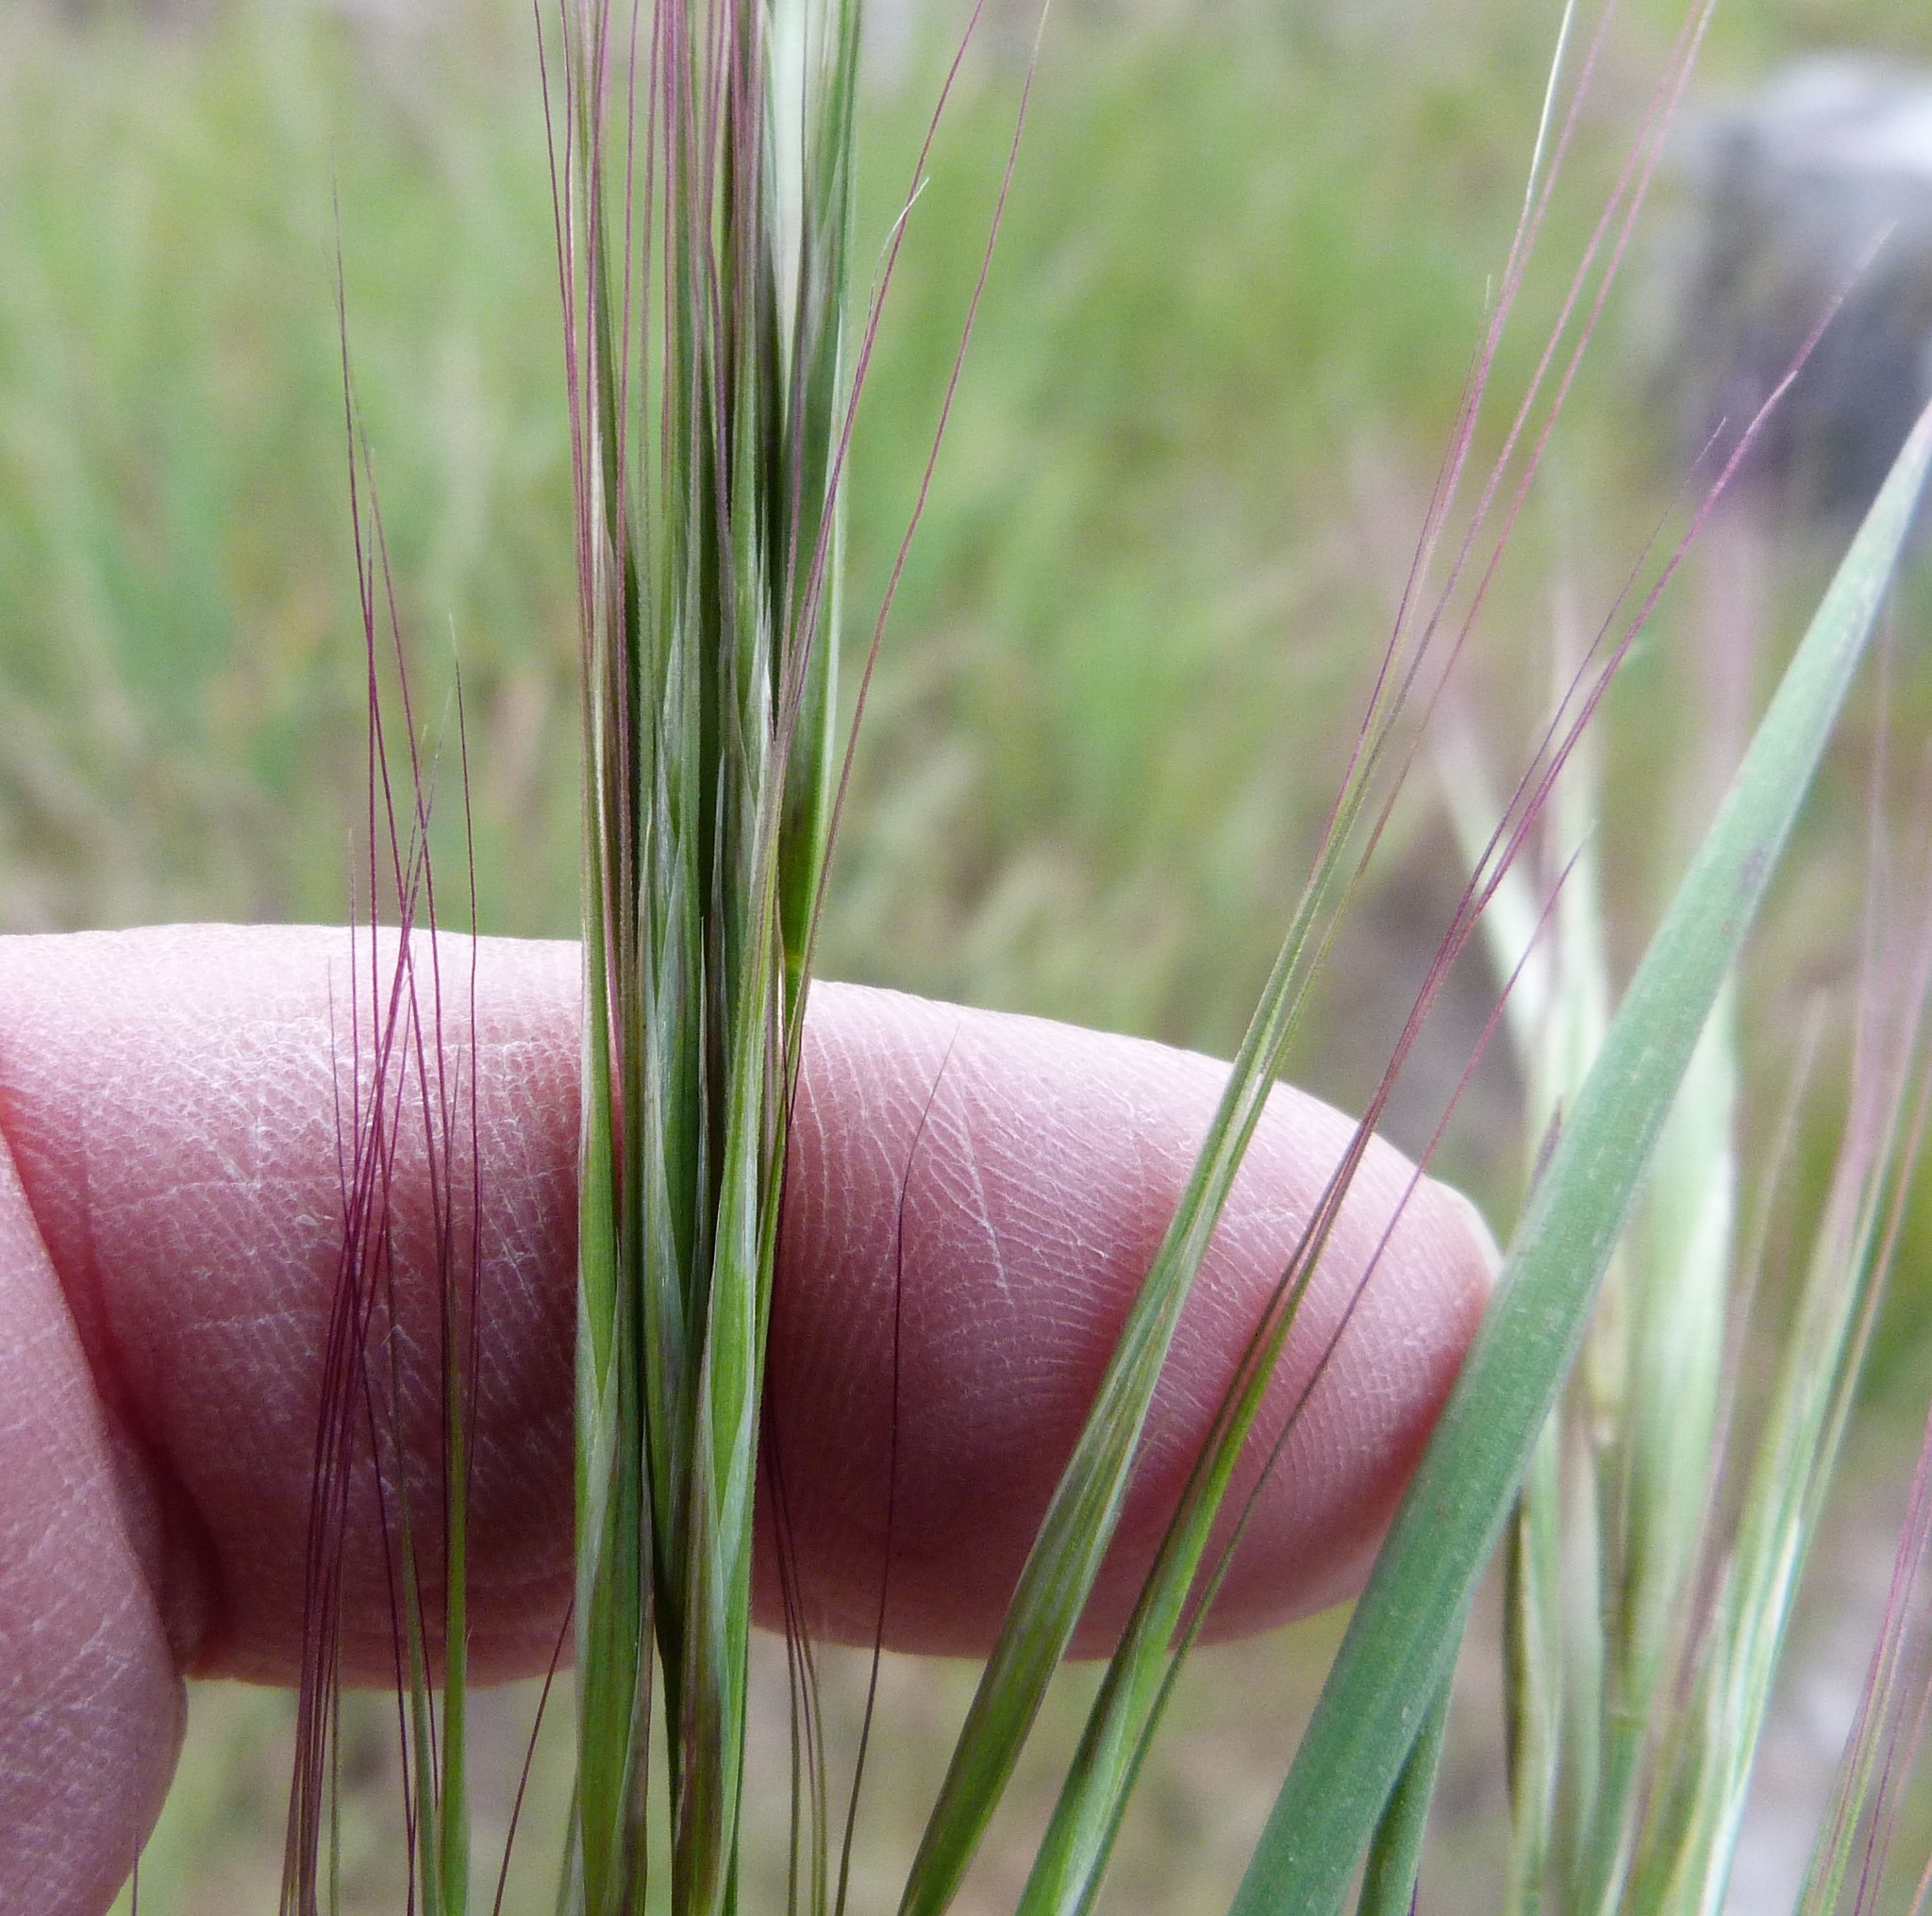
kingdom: Plantae
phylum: Tracheophyta
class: Liliopsida
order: Poales
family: Poaceae
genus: Bromus
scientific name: Bromus diandrus
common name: Ripgut brome
